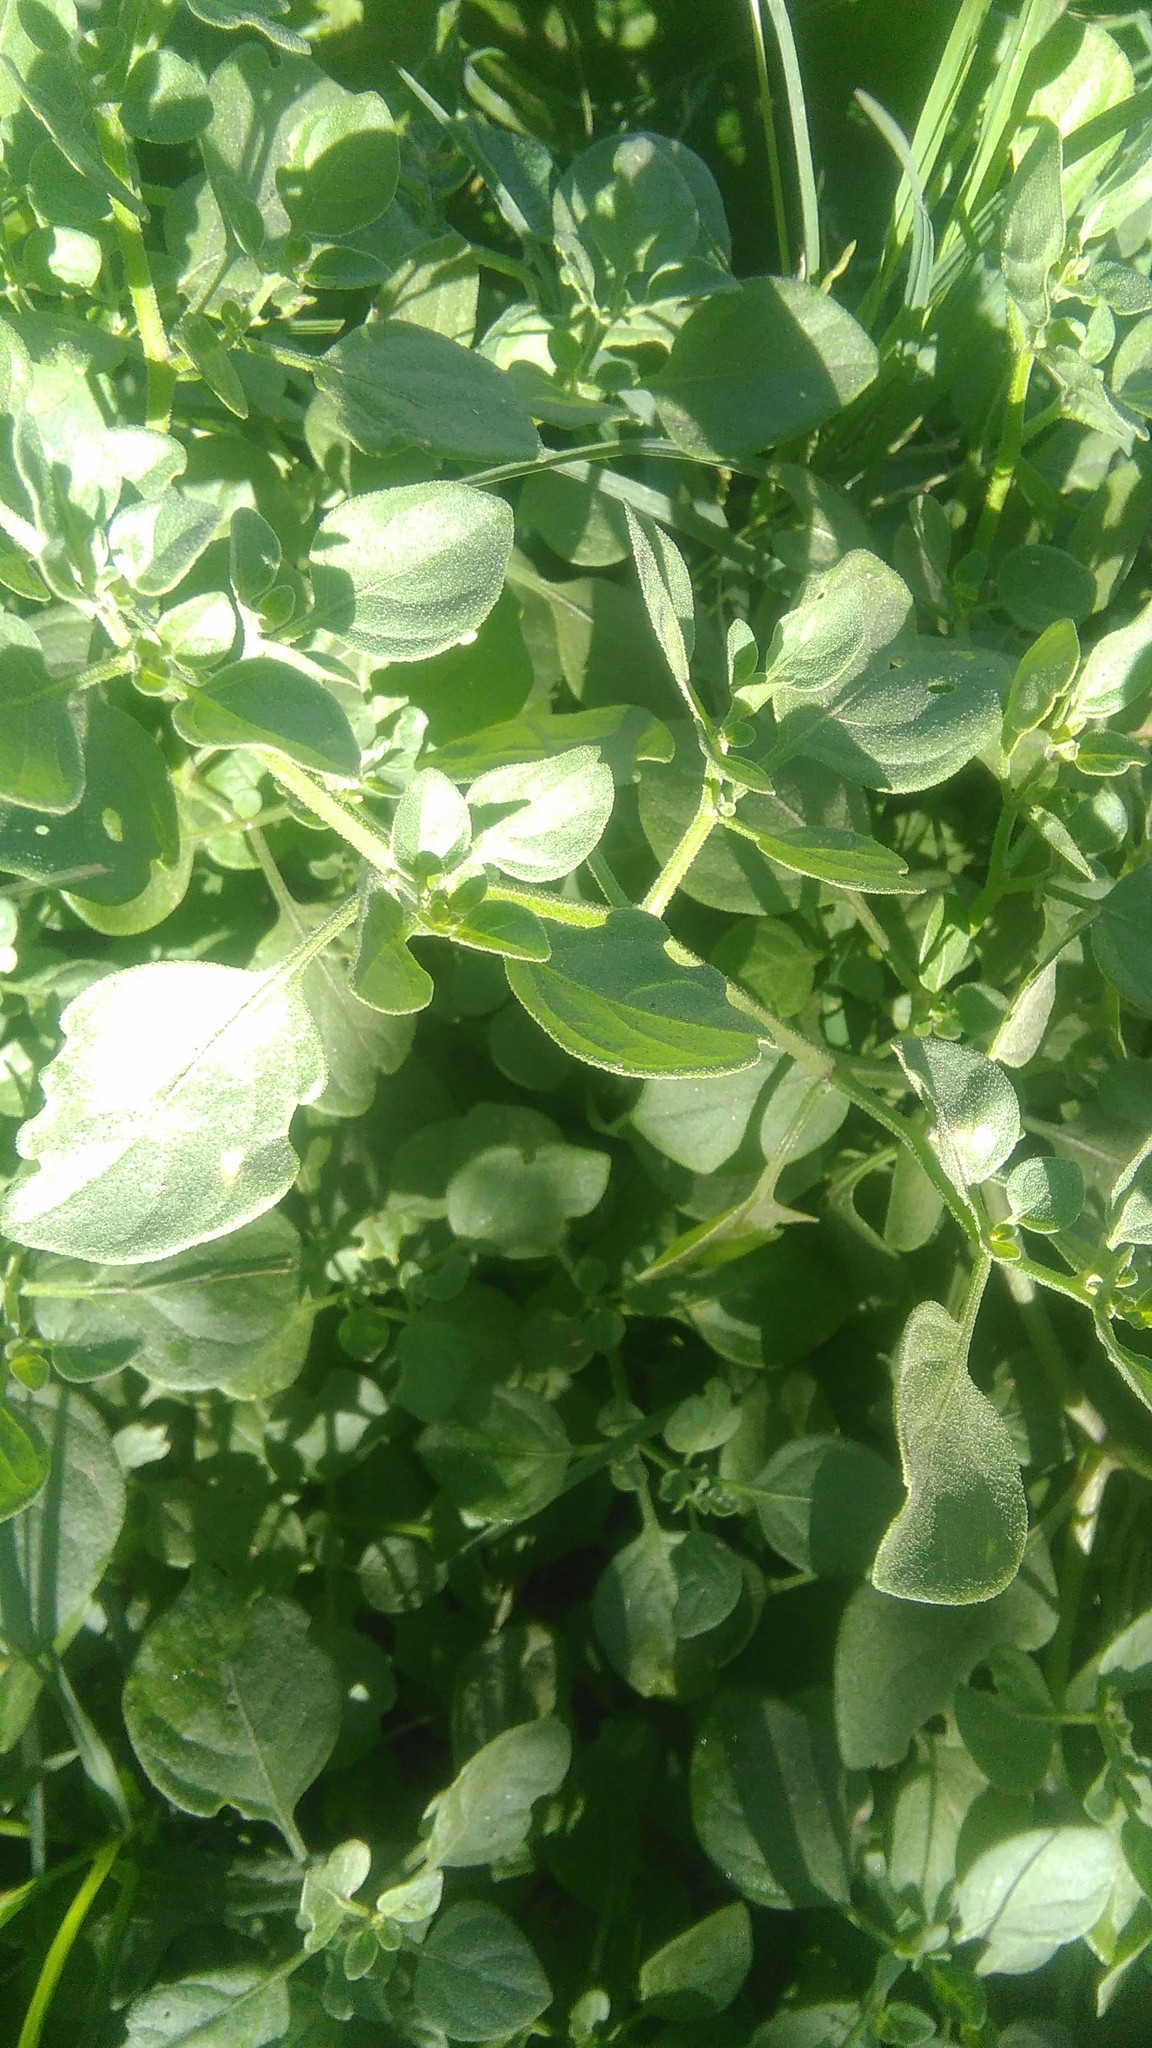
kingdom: Plantae
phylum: Tracheophyta
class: Magnoliopsida
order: Solanales
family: Solanaceae
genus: Salpichroa
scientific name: Salpichroa origanifolia
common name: Lily-of-the-valley-vine
